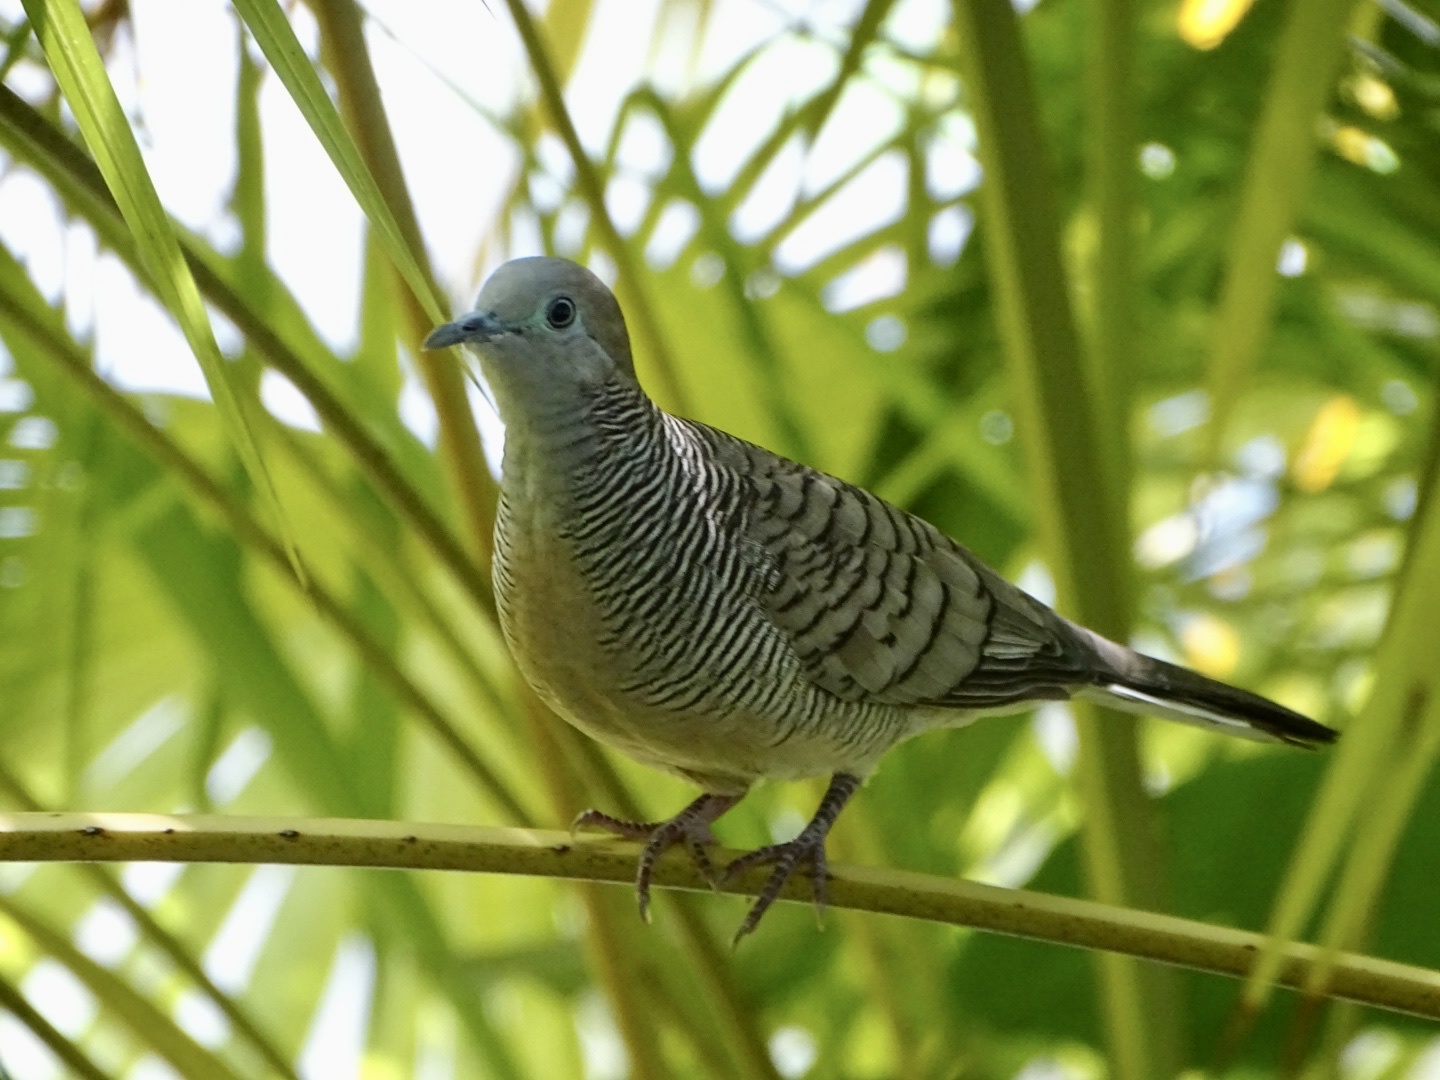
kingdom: Animalia
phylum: Chordata
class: Aves
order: Columbiformes
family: Columbidae
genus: Geopelia
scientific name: Geopelia striata
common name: Zebra dove
